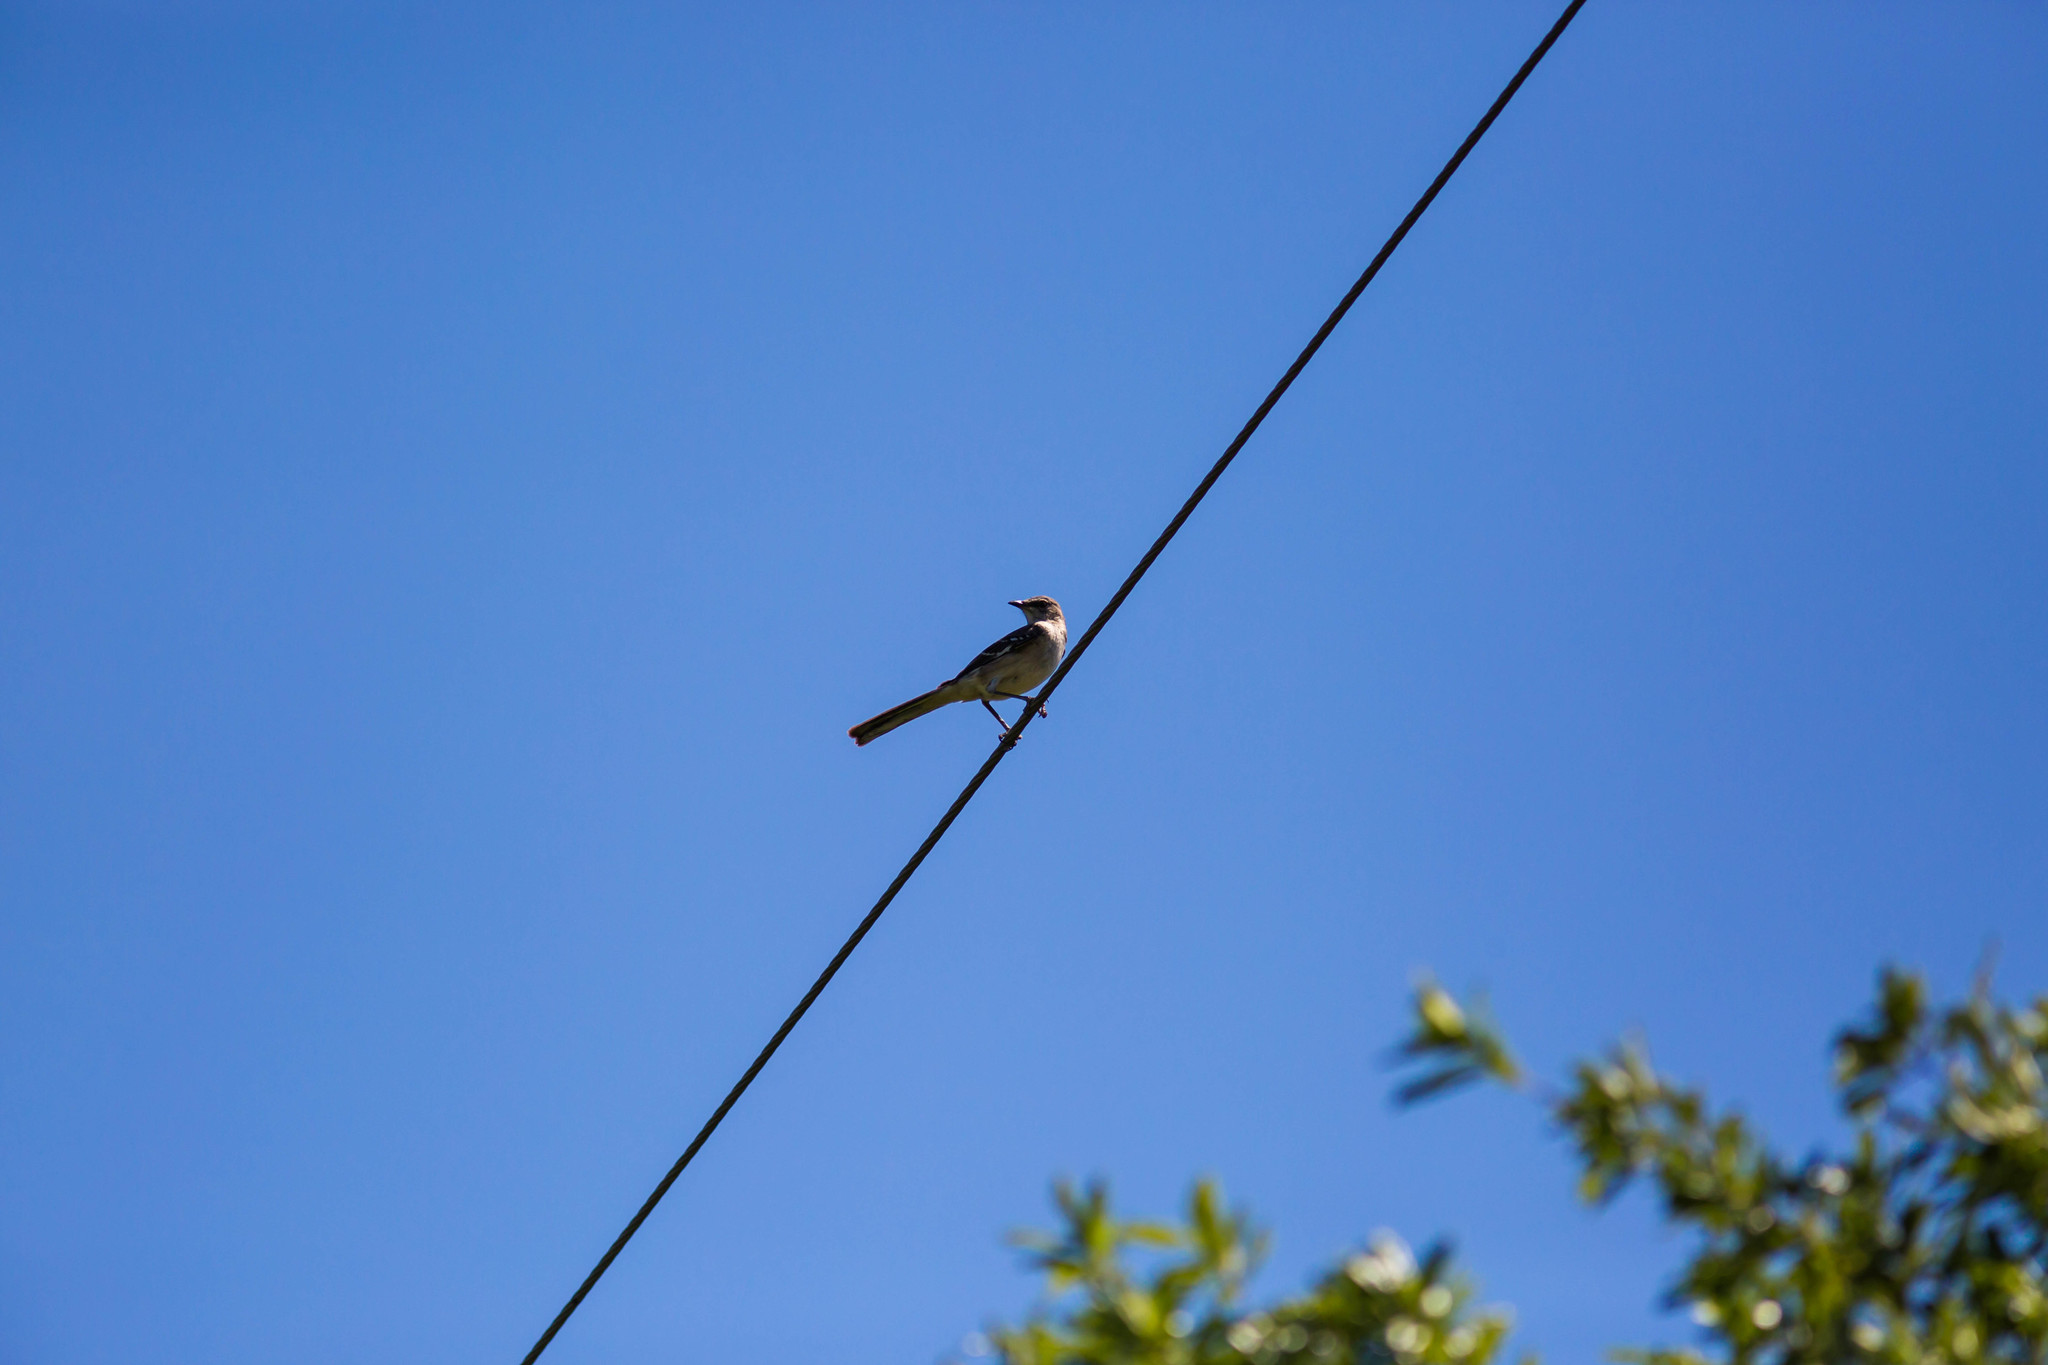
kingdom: Animalia
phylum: Chordata
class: Aves
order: Passeriformes
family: Mimidae
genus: Mimus
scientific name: Mimus polyglottos
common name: Northern mockingbird
